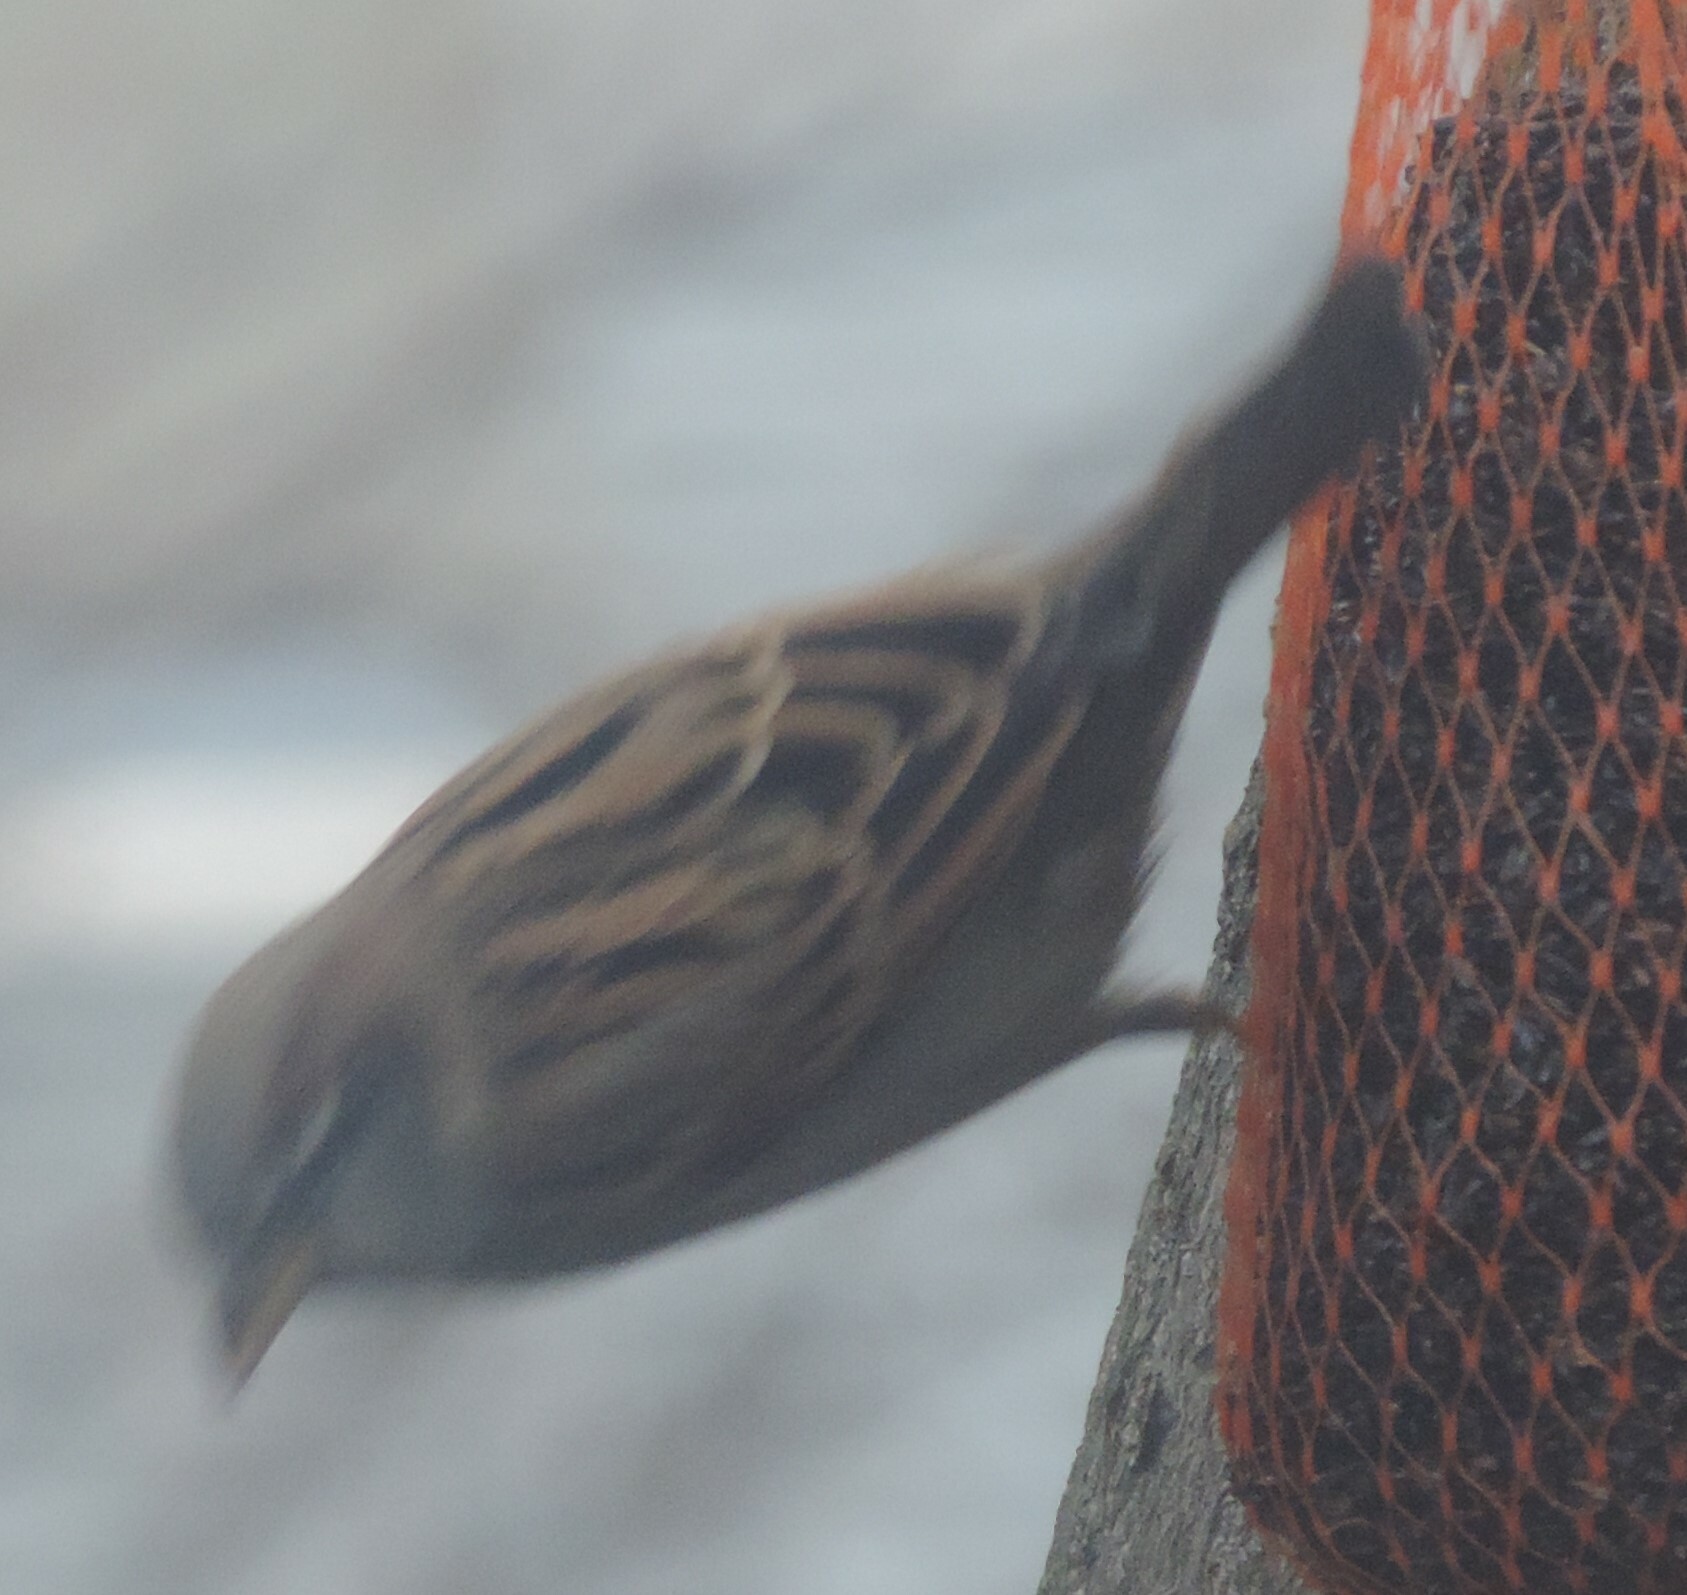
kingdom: Animalia
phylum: Chordata
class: Aves
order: Passeriformes
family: Passeridae
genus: Passer
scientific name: Passer domesticus
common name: House sparrow
